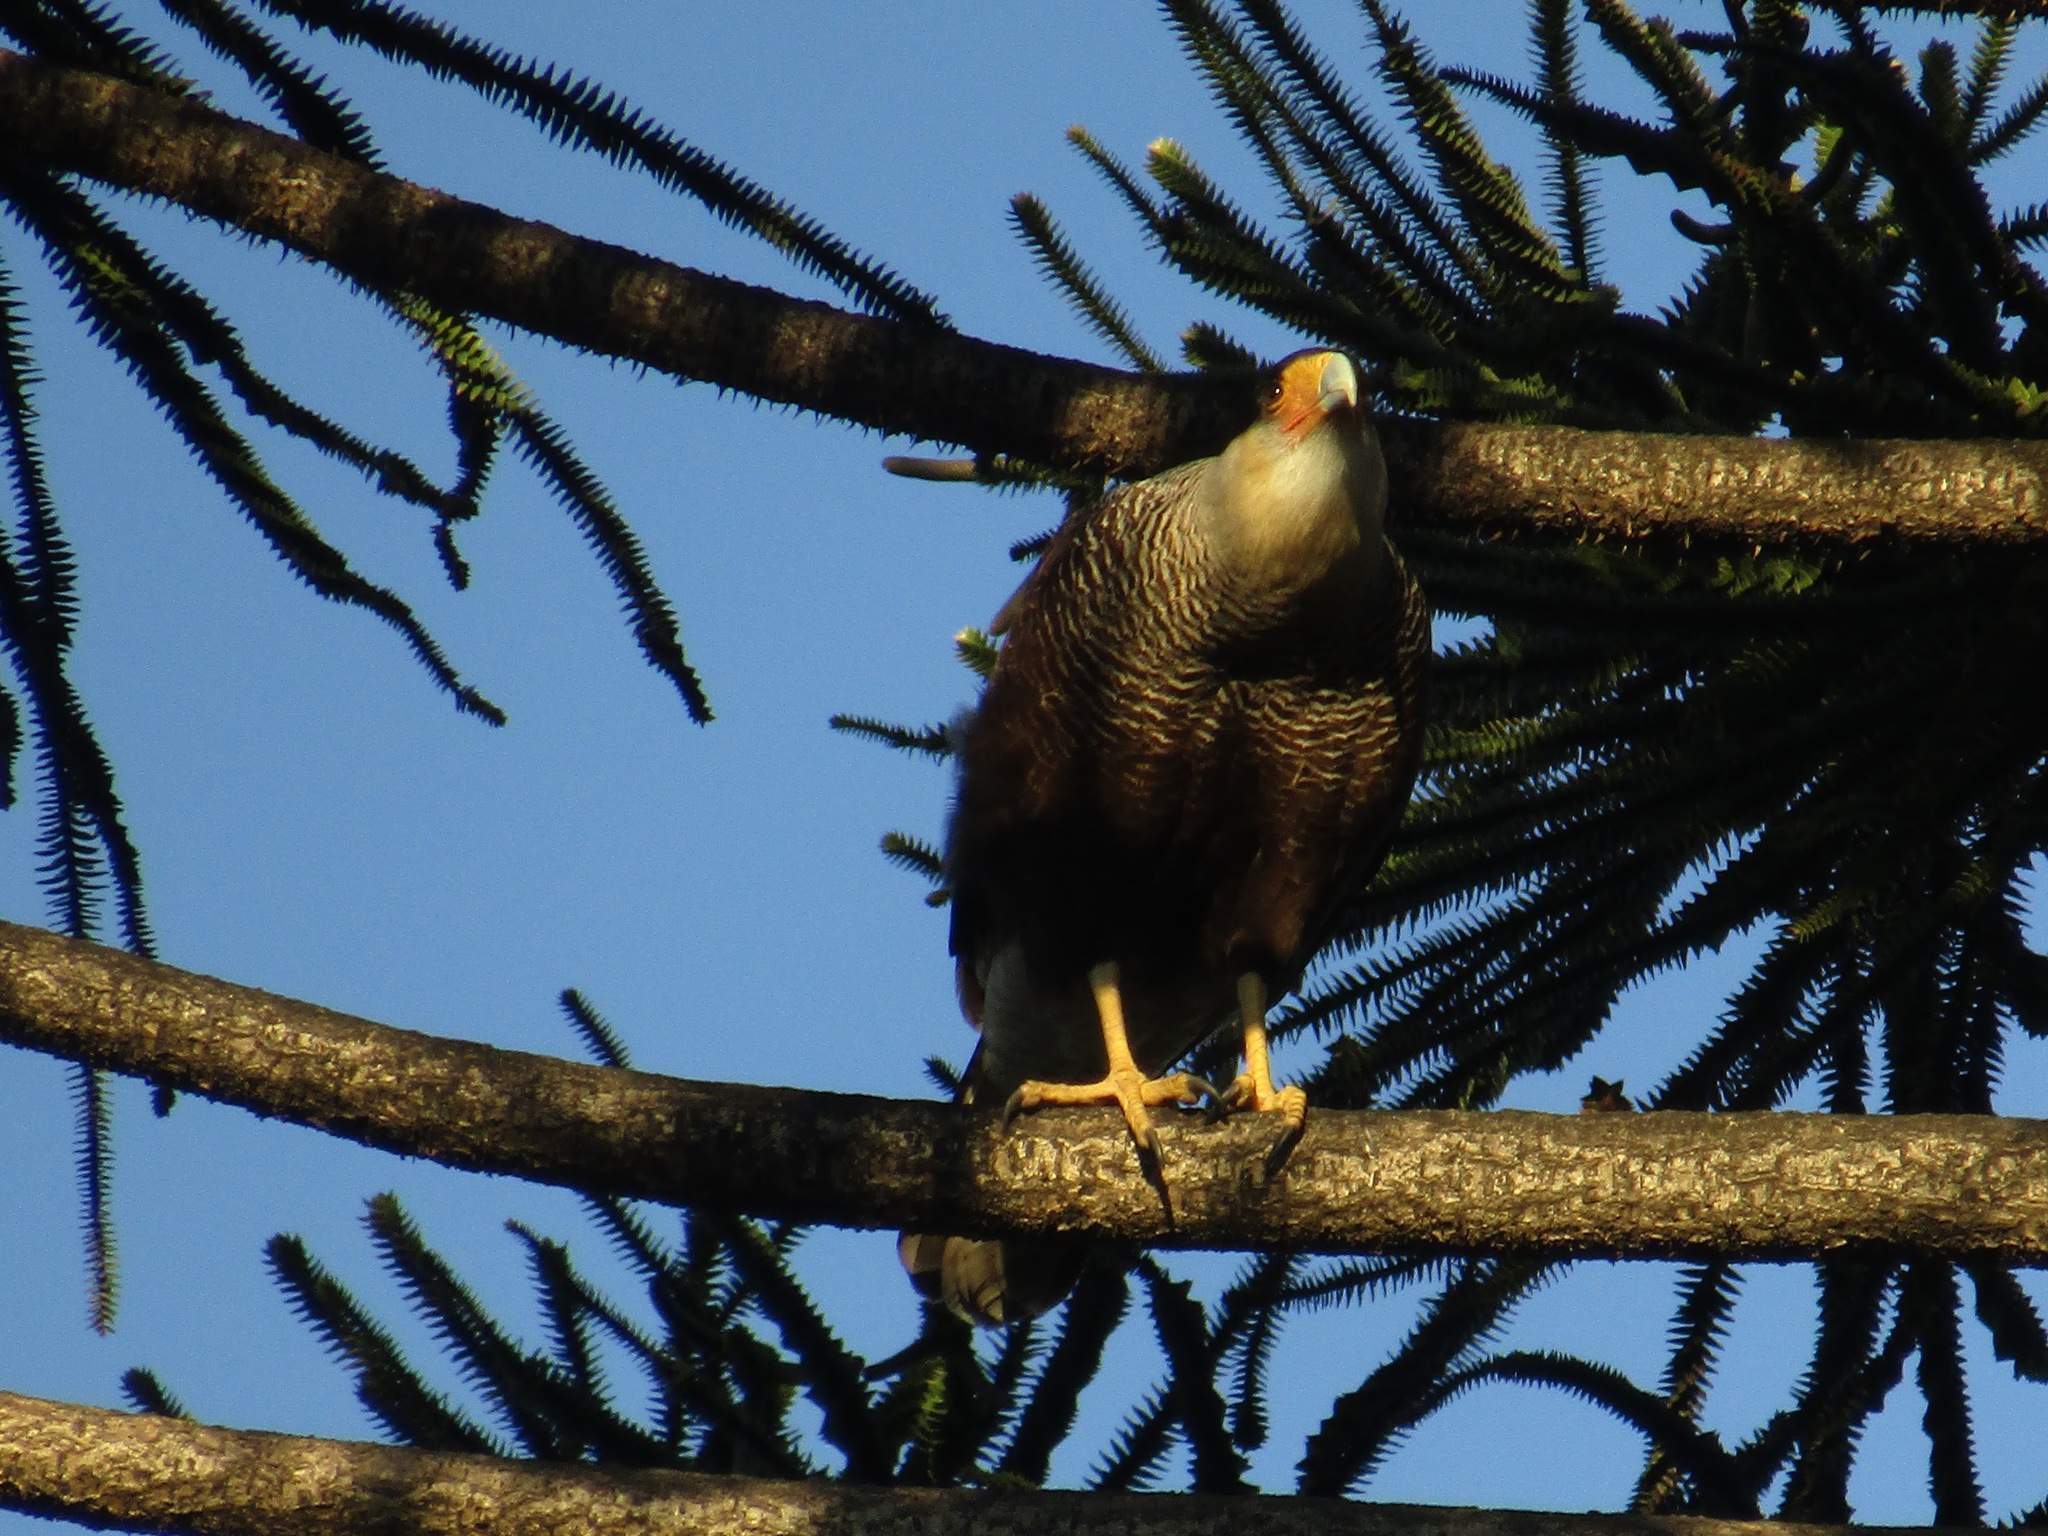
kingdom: Animalia
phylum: Chordata
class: Aves
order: Falconiformes
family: Falconidae
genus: Caracara
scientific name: Caracara plancus
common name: Southern caracara
